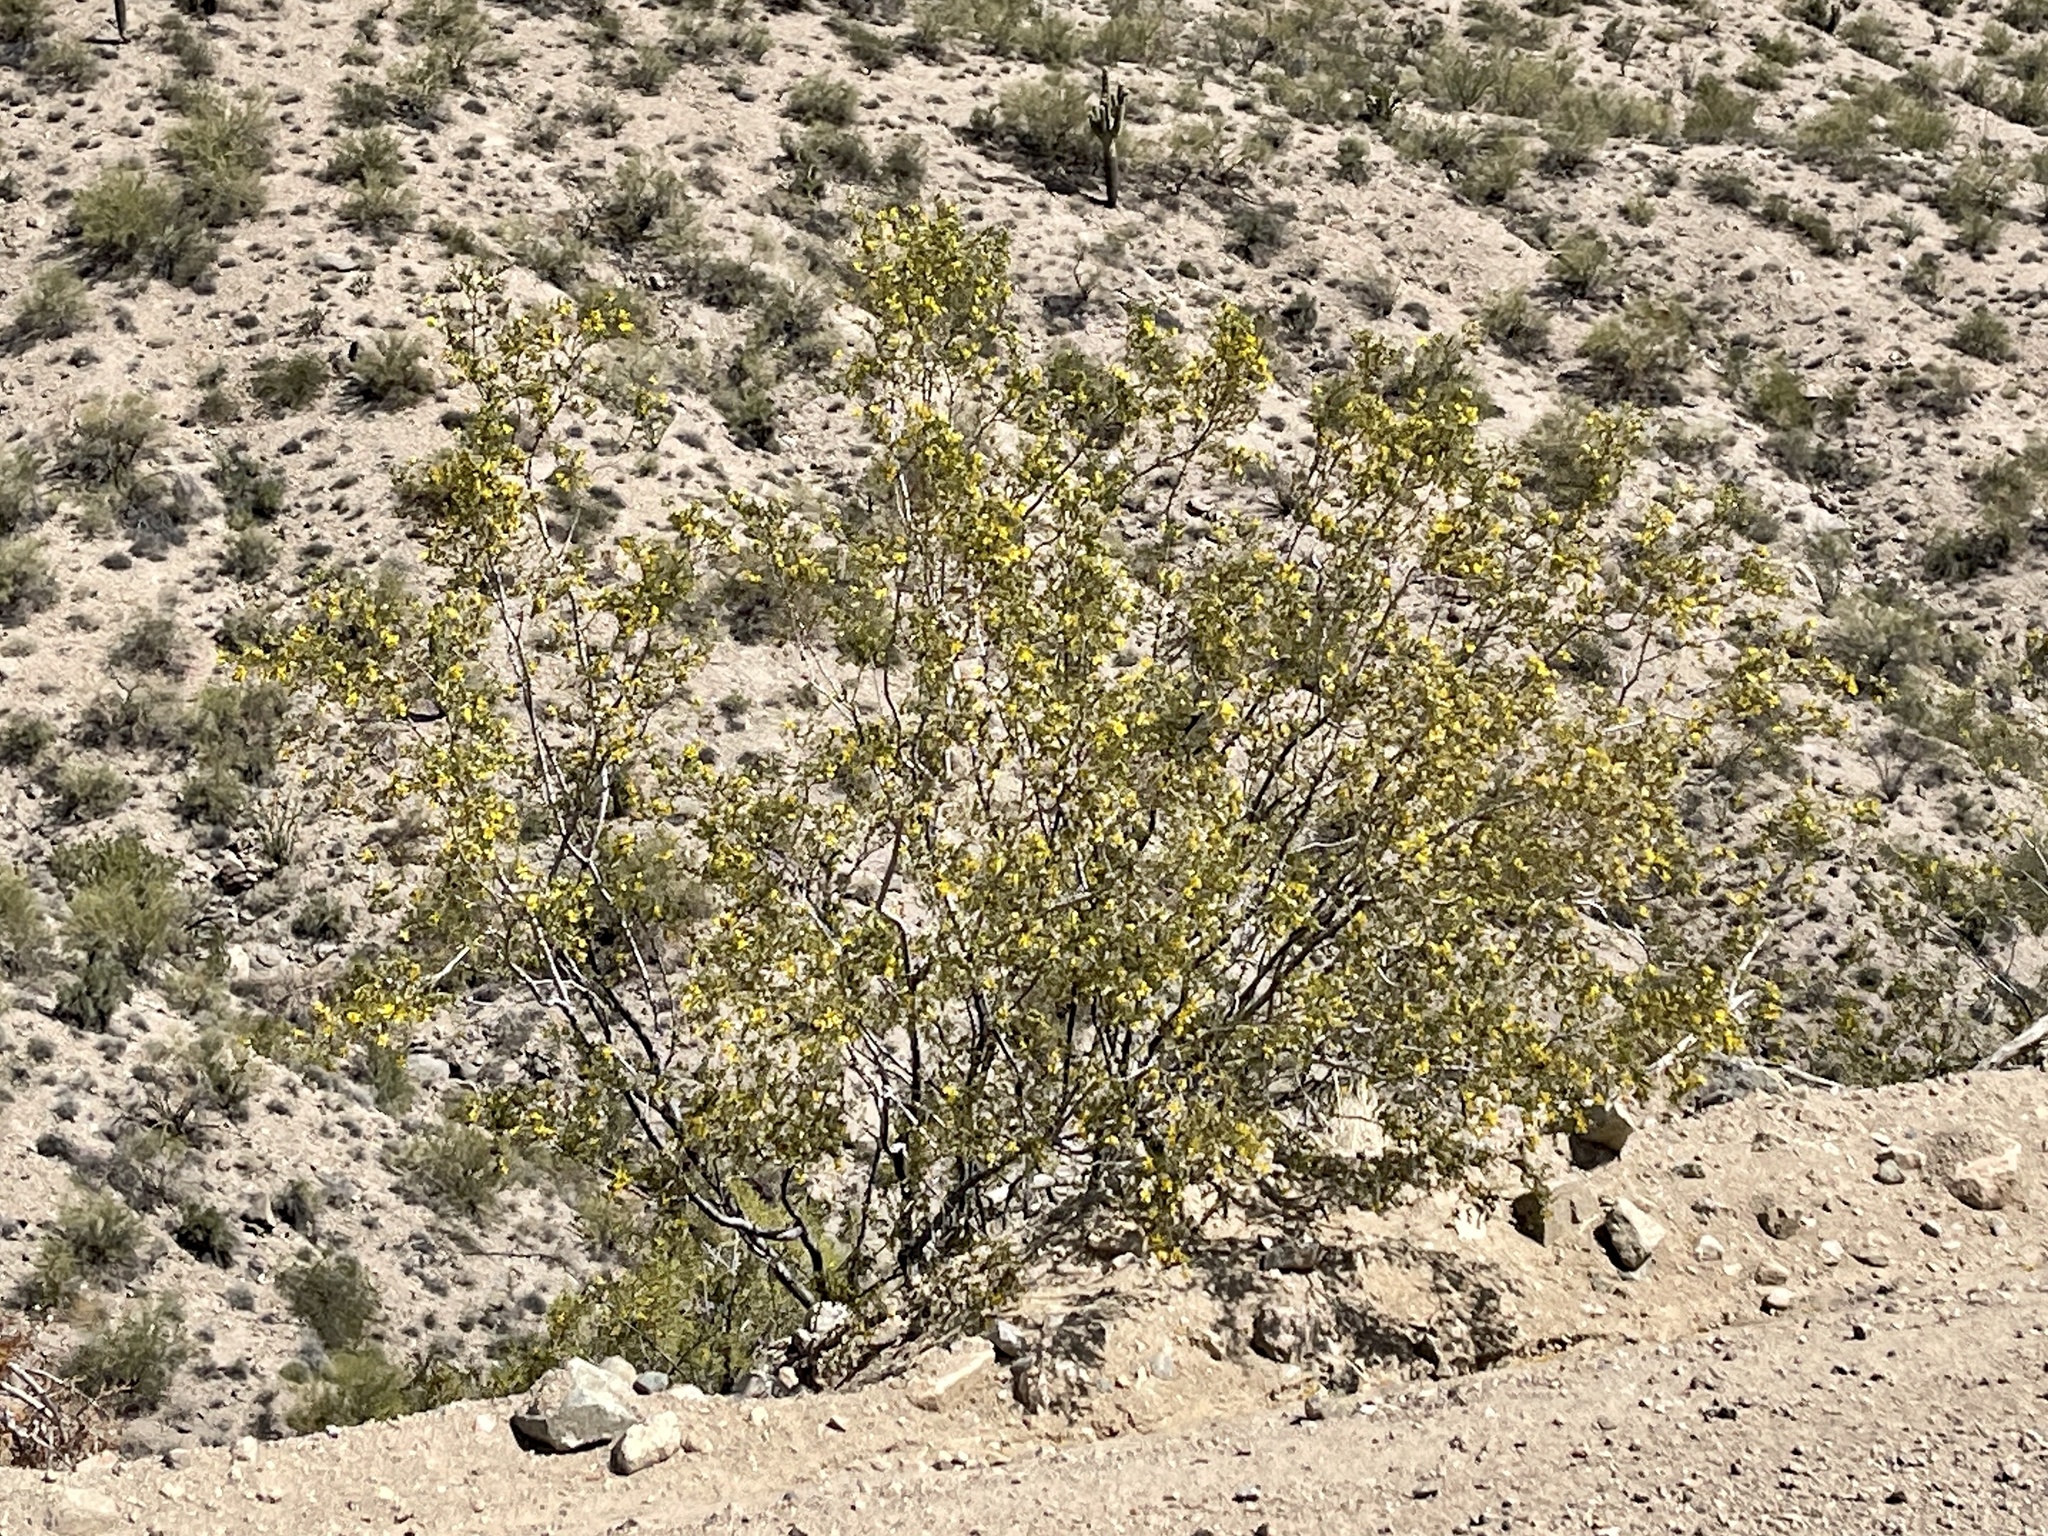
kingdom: Plantae
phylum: Tracheophyta
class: Magnoliopsida
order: Zygophyllales
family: Zygophyllaceae
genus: Larrea
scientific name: Larrea tridentata
